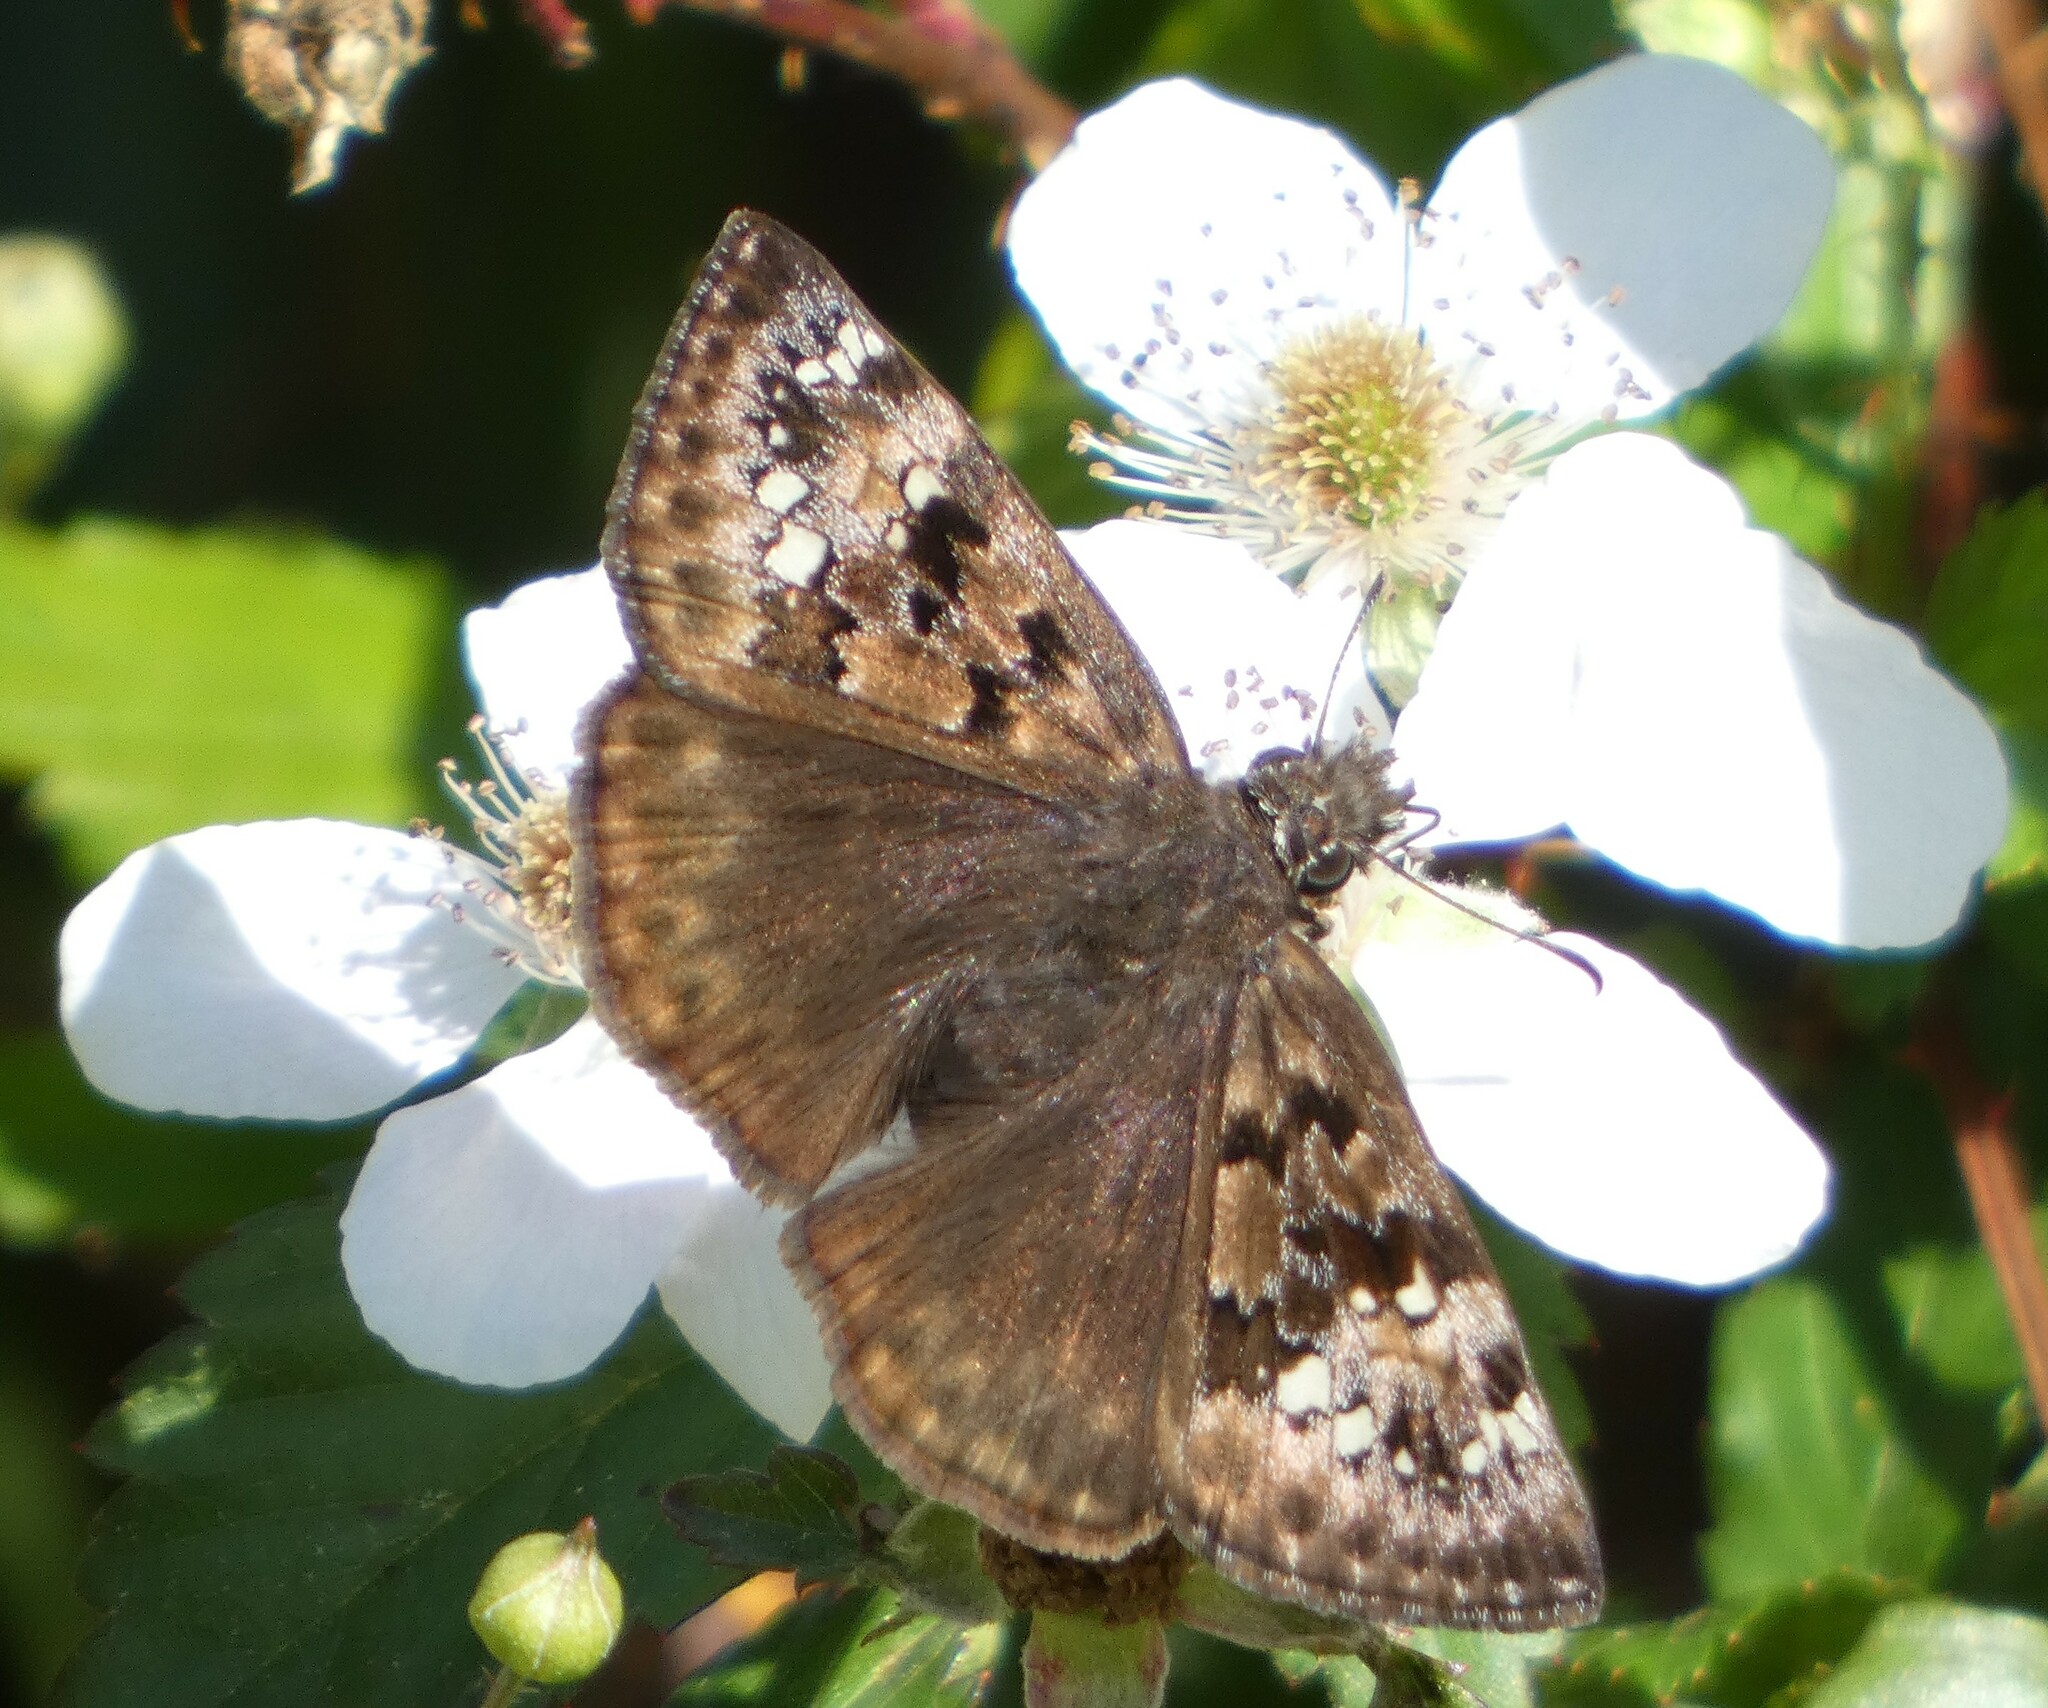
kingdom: Animalia
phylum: Arthropoda
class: Insecta
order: Lepidoptera
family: Hesperiidae
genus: Erynnis
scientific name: Erynnis horatius
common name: Horace's duskywing
